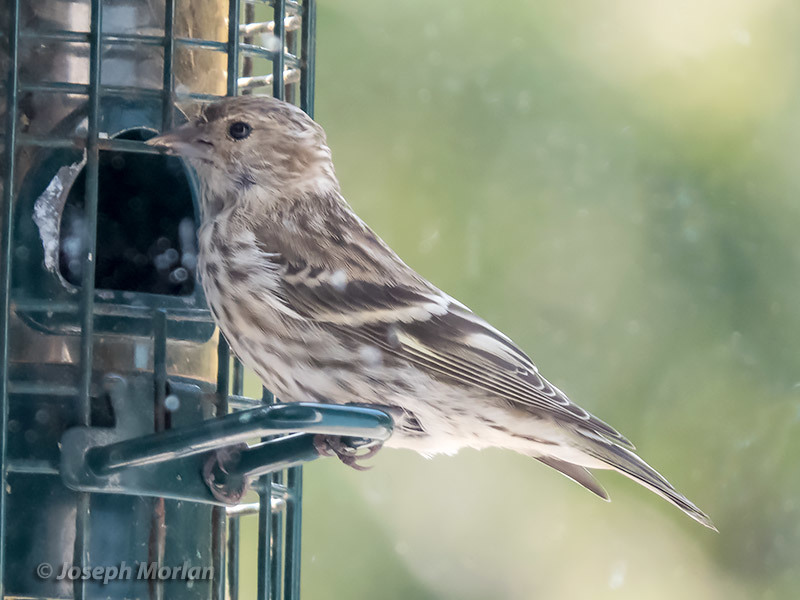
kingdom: Animalia
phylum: Chordata
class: Aves
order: Passeriformes
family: Fringillidae
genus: Spinus
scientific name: Spinus pinus
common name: Pine siskin
